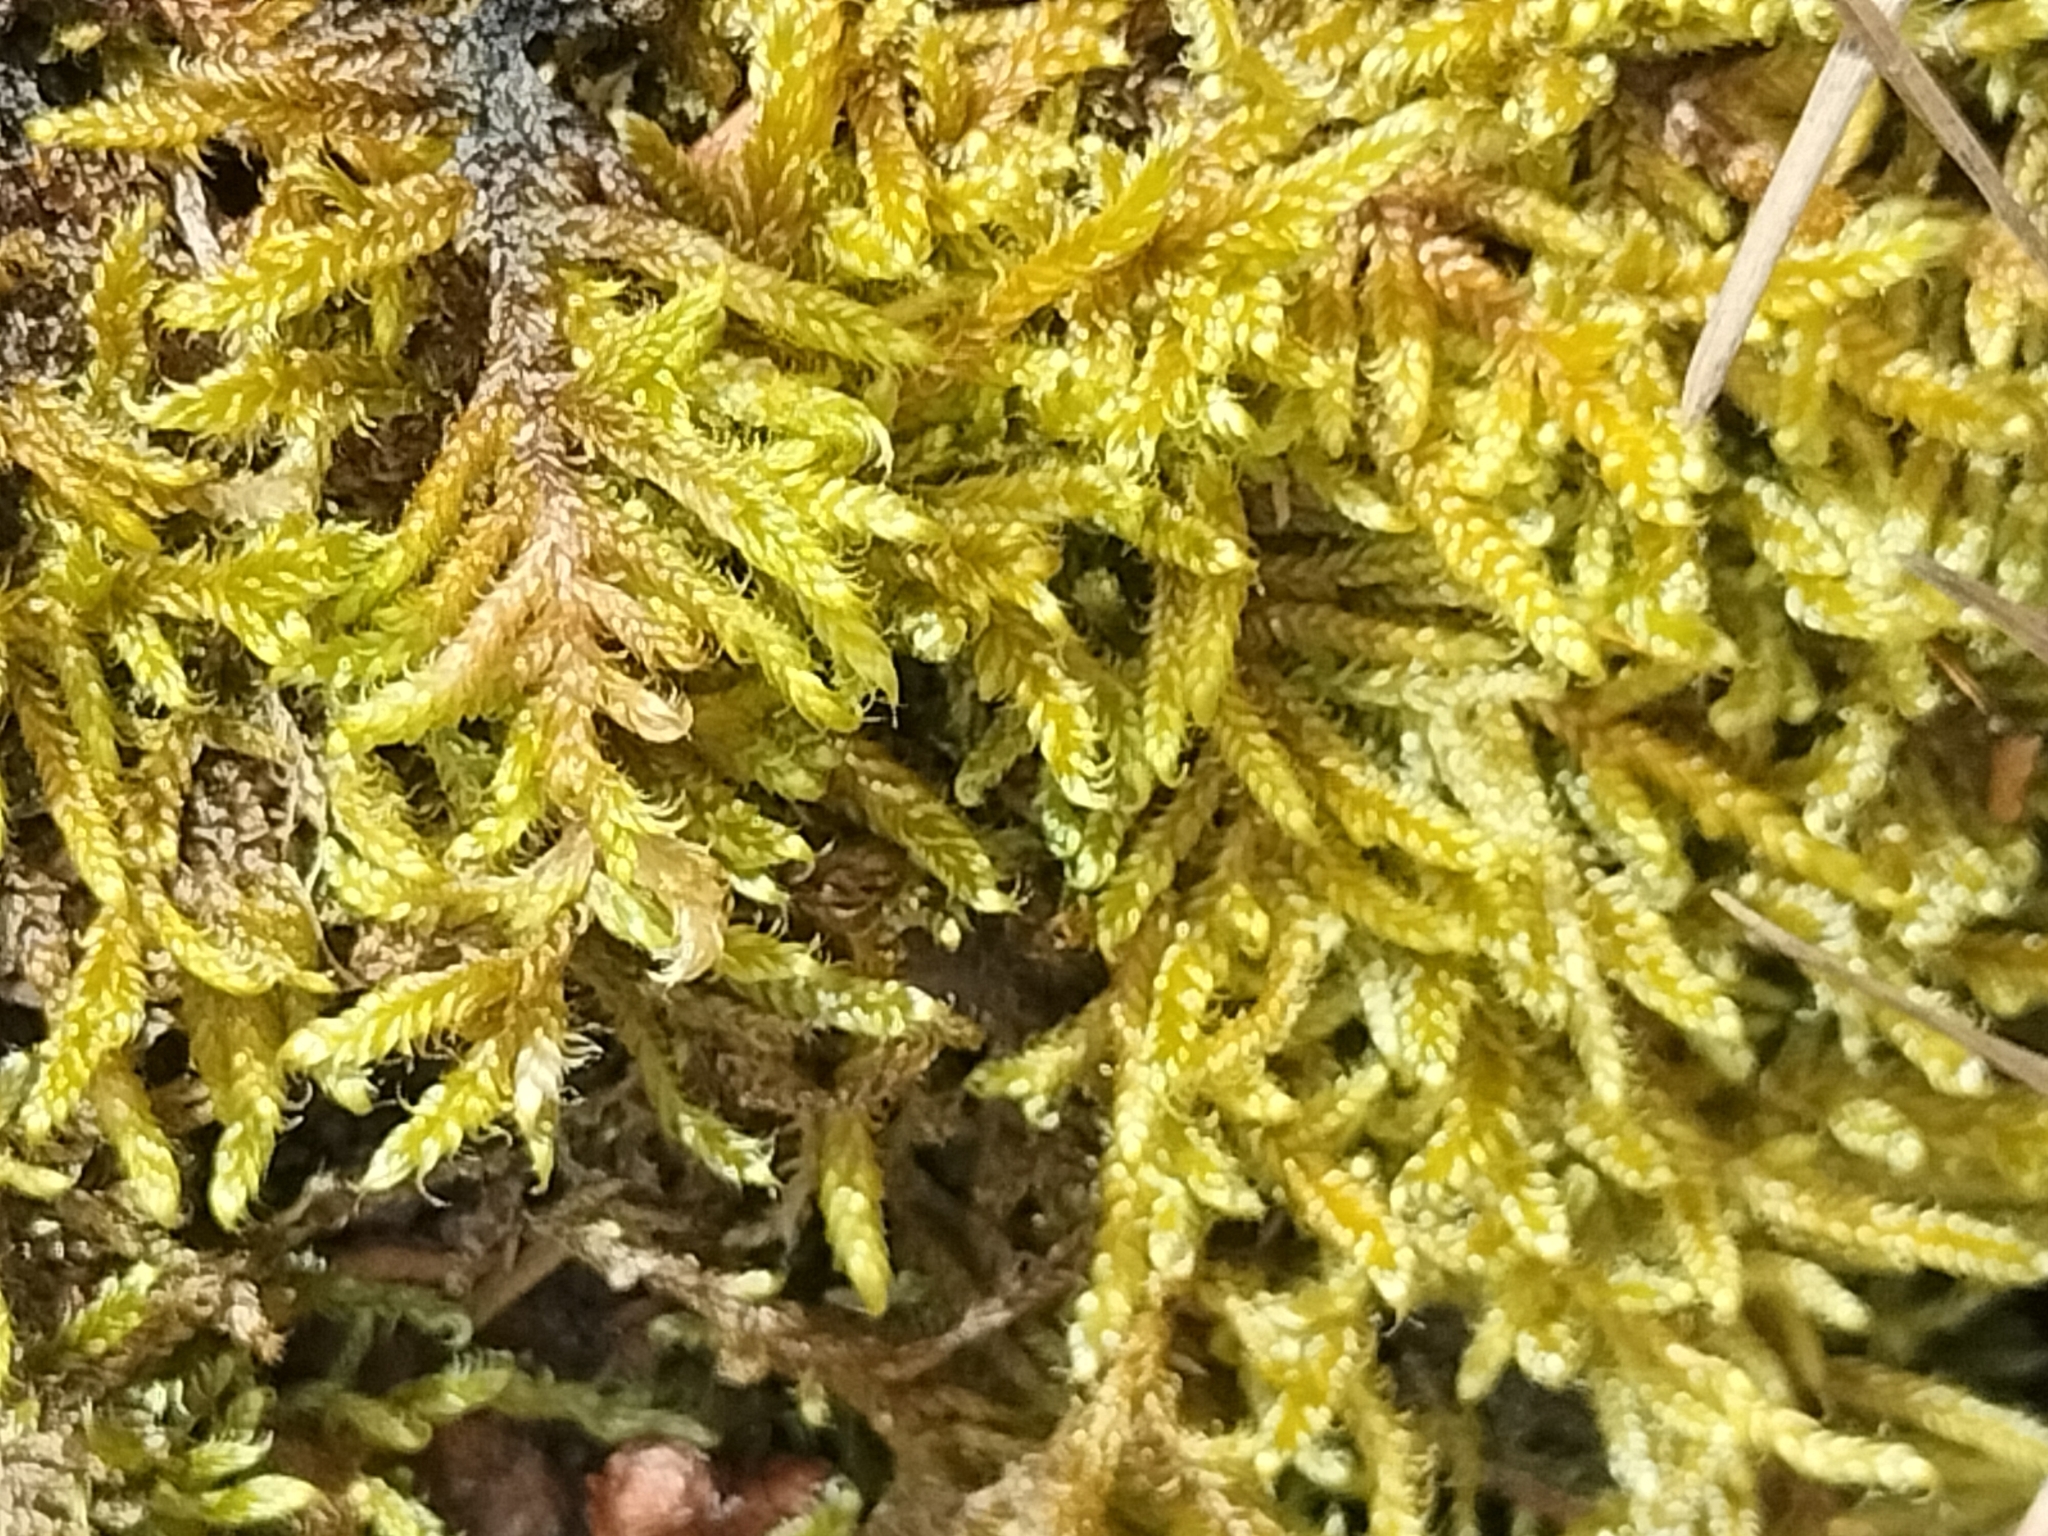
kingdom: Plantae
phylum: Bryophyta
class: Bryopsida
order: Hypnales
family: Hypnaceae
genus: Hypnum
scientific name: Hypnum cupressiforme
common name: Cypress-leaved plait-moss
